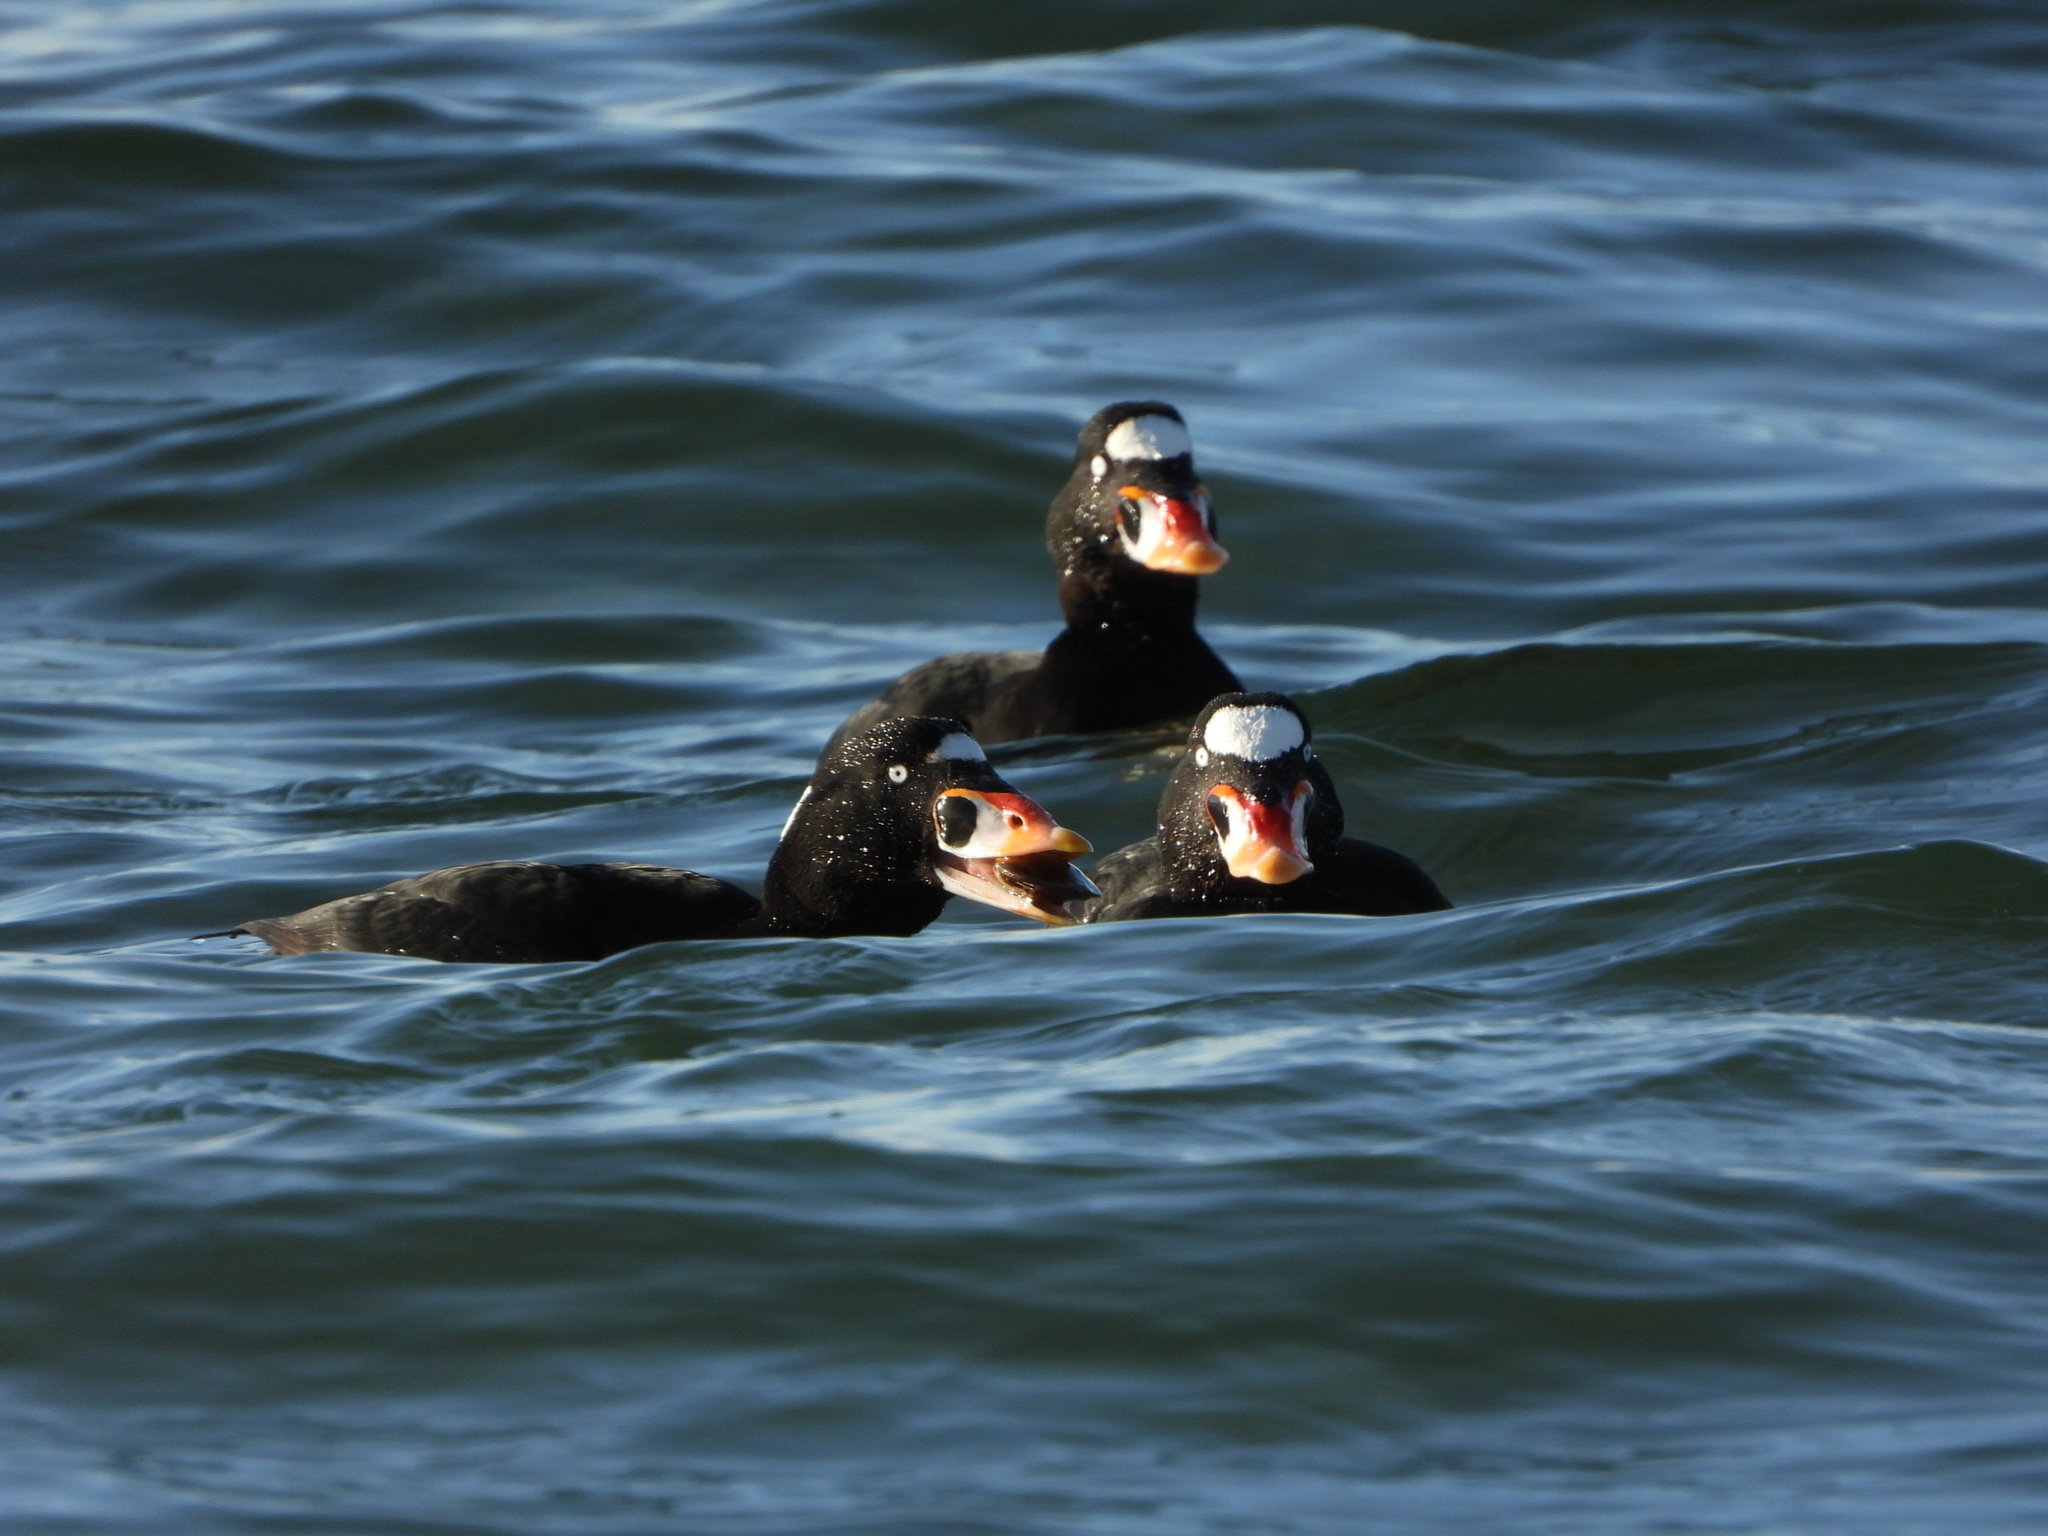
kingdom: Animalia
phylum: Chordata
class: Aves
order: Anseriformes
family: Anatidae
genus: Melanitta
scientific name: Melanitta perspicillata
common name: Surf scoter
